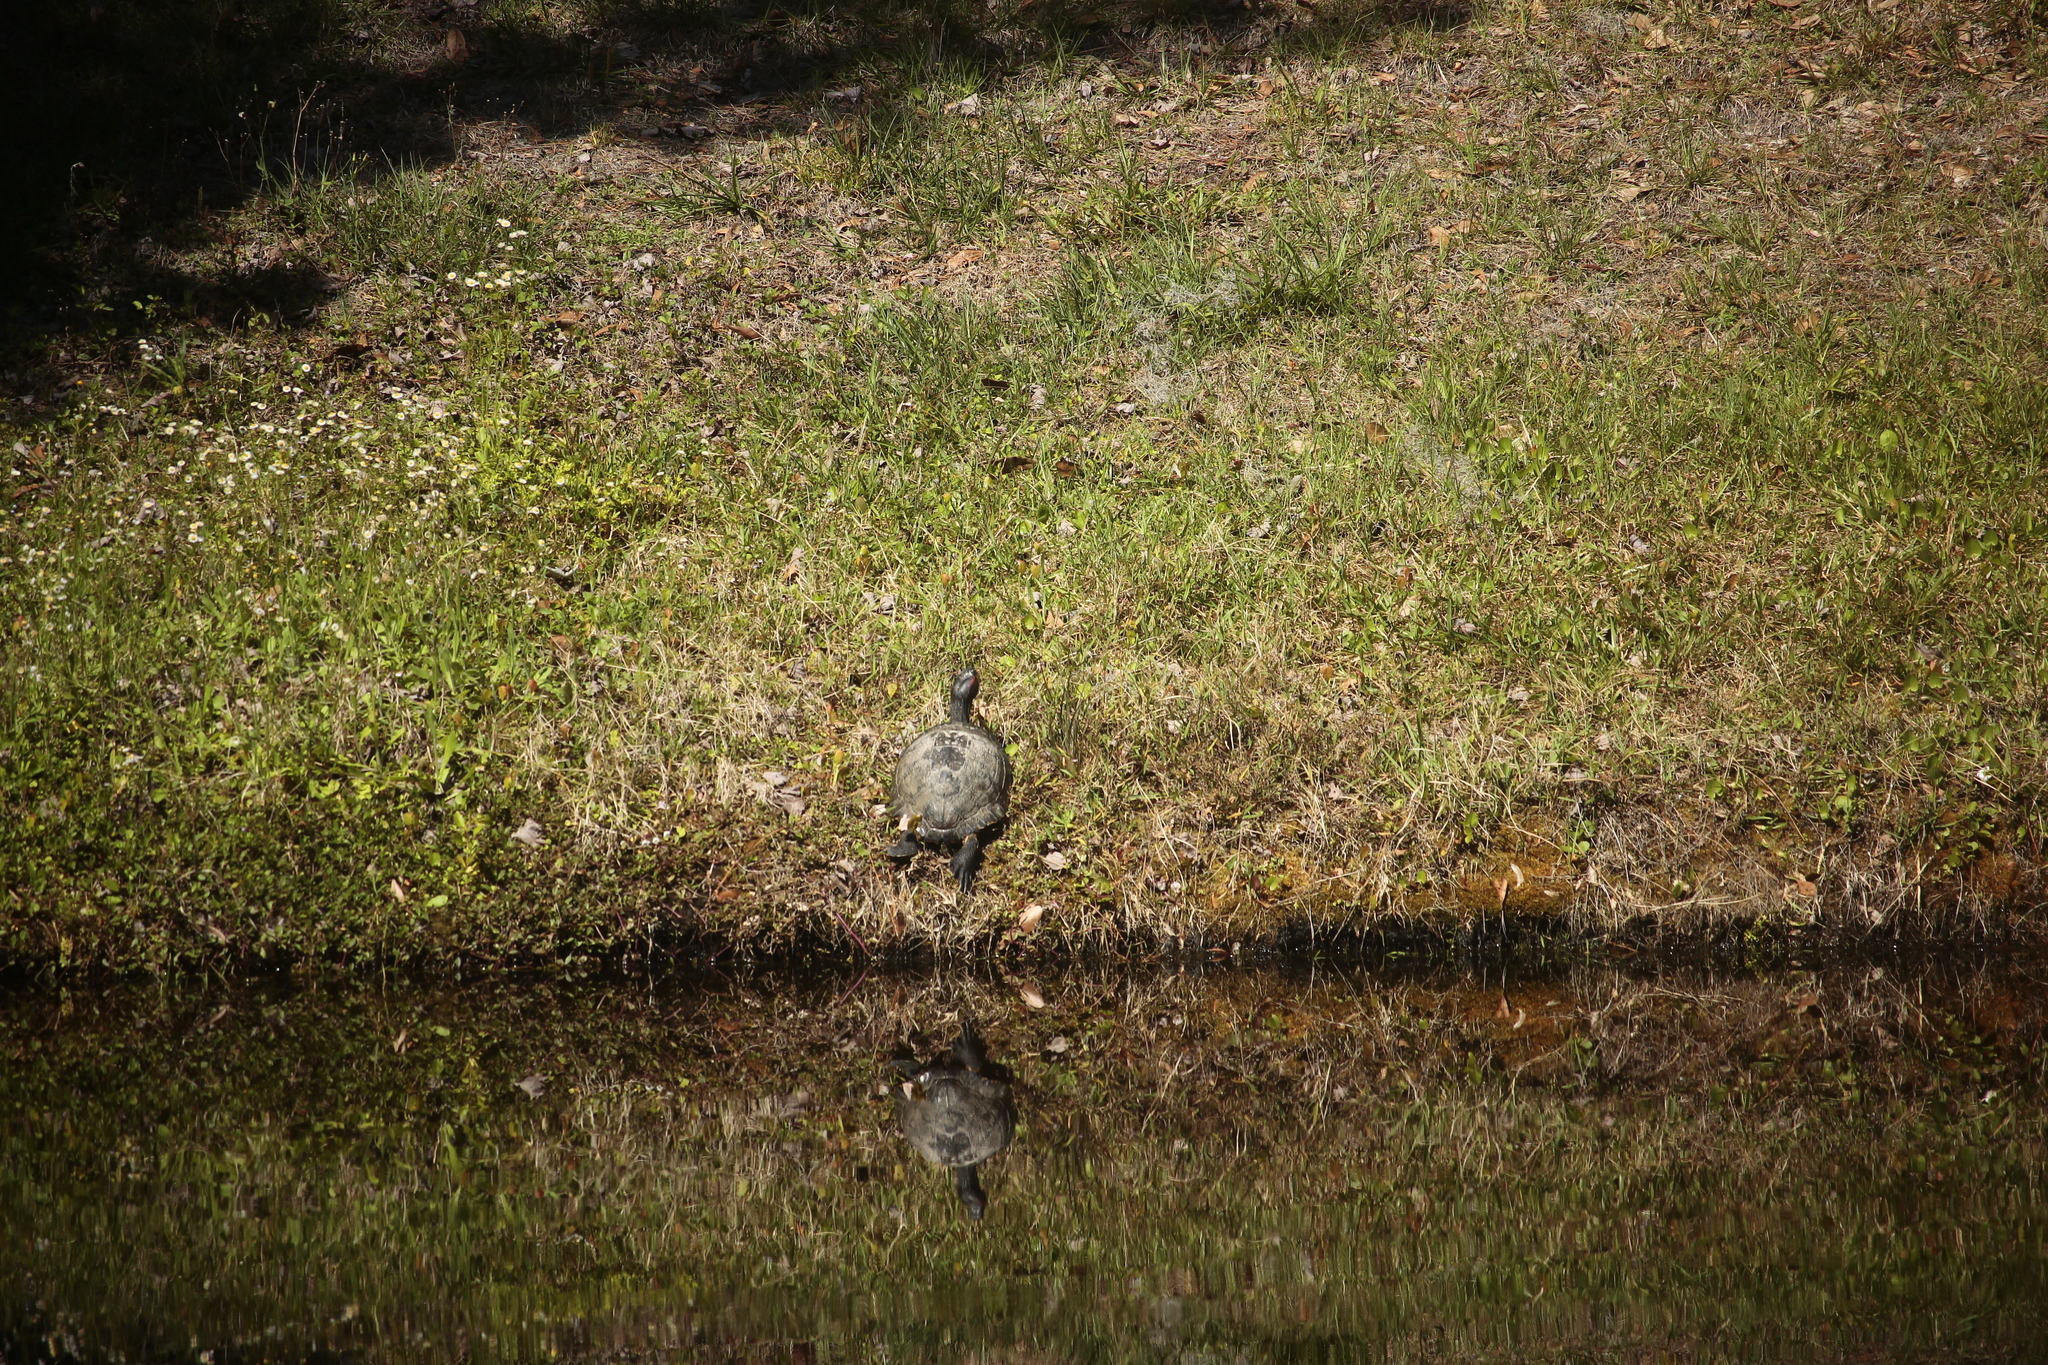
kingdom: Animalia
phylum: Chordata
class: Testudines
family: Emydidae
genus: Trachemys
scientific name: Trachemys scripta
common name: Slider
